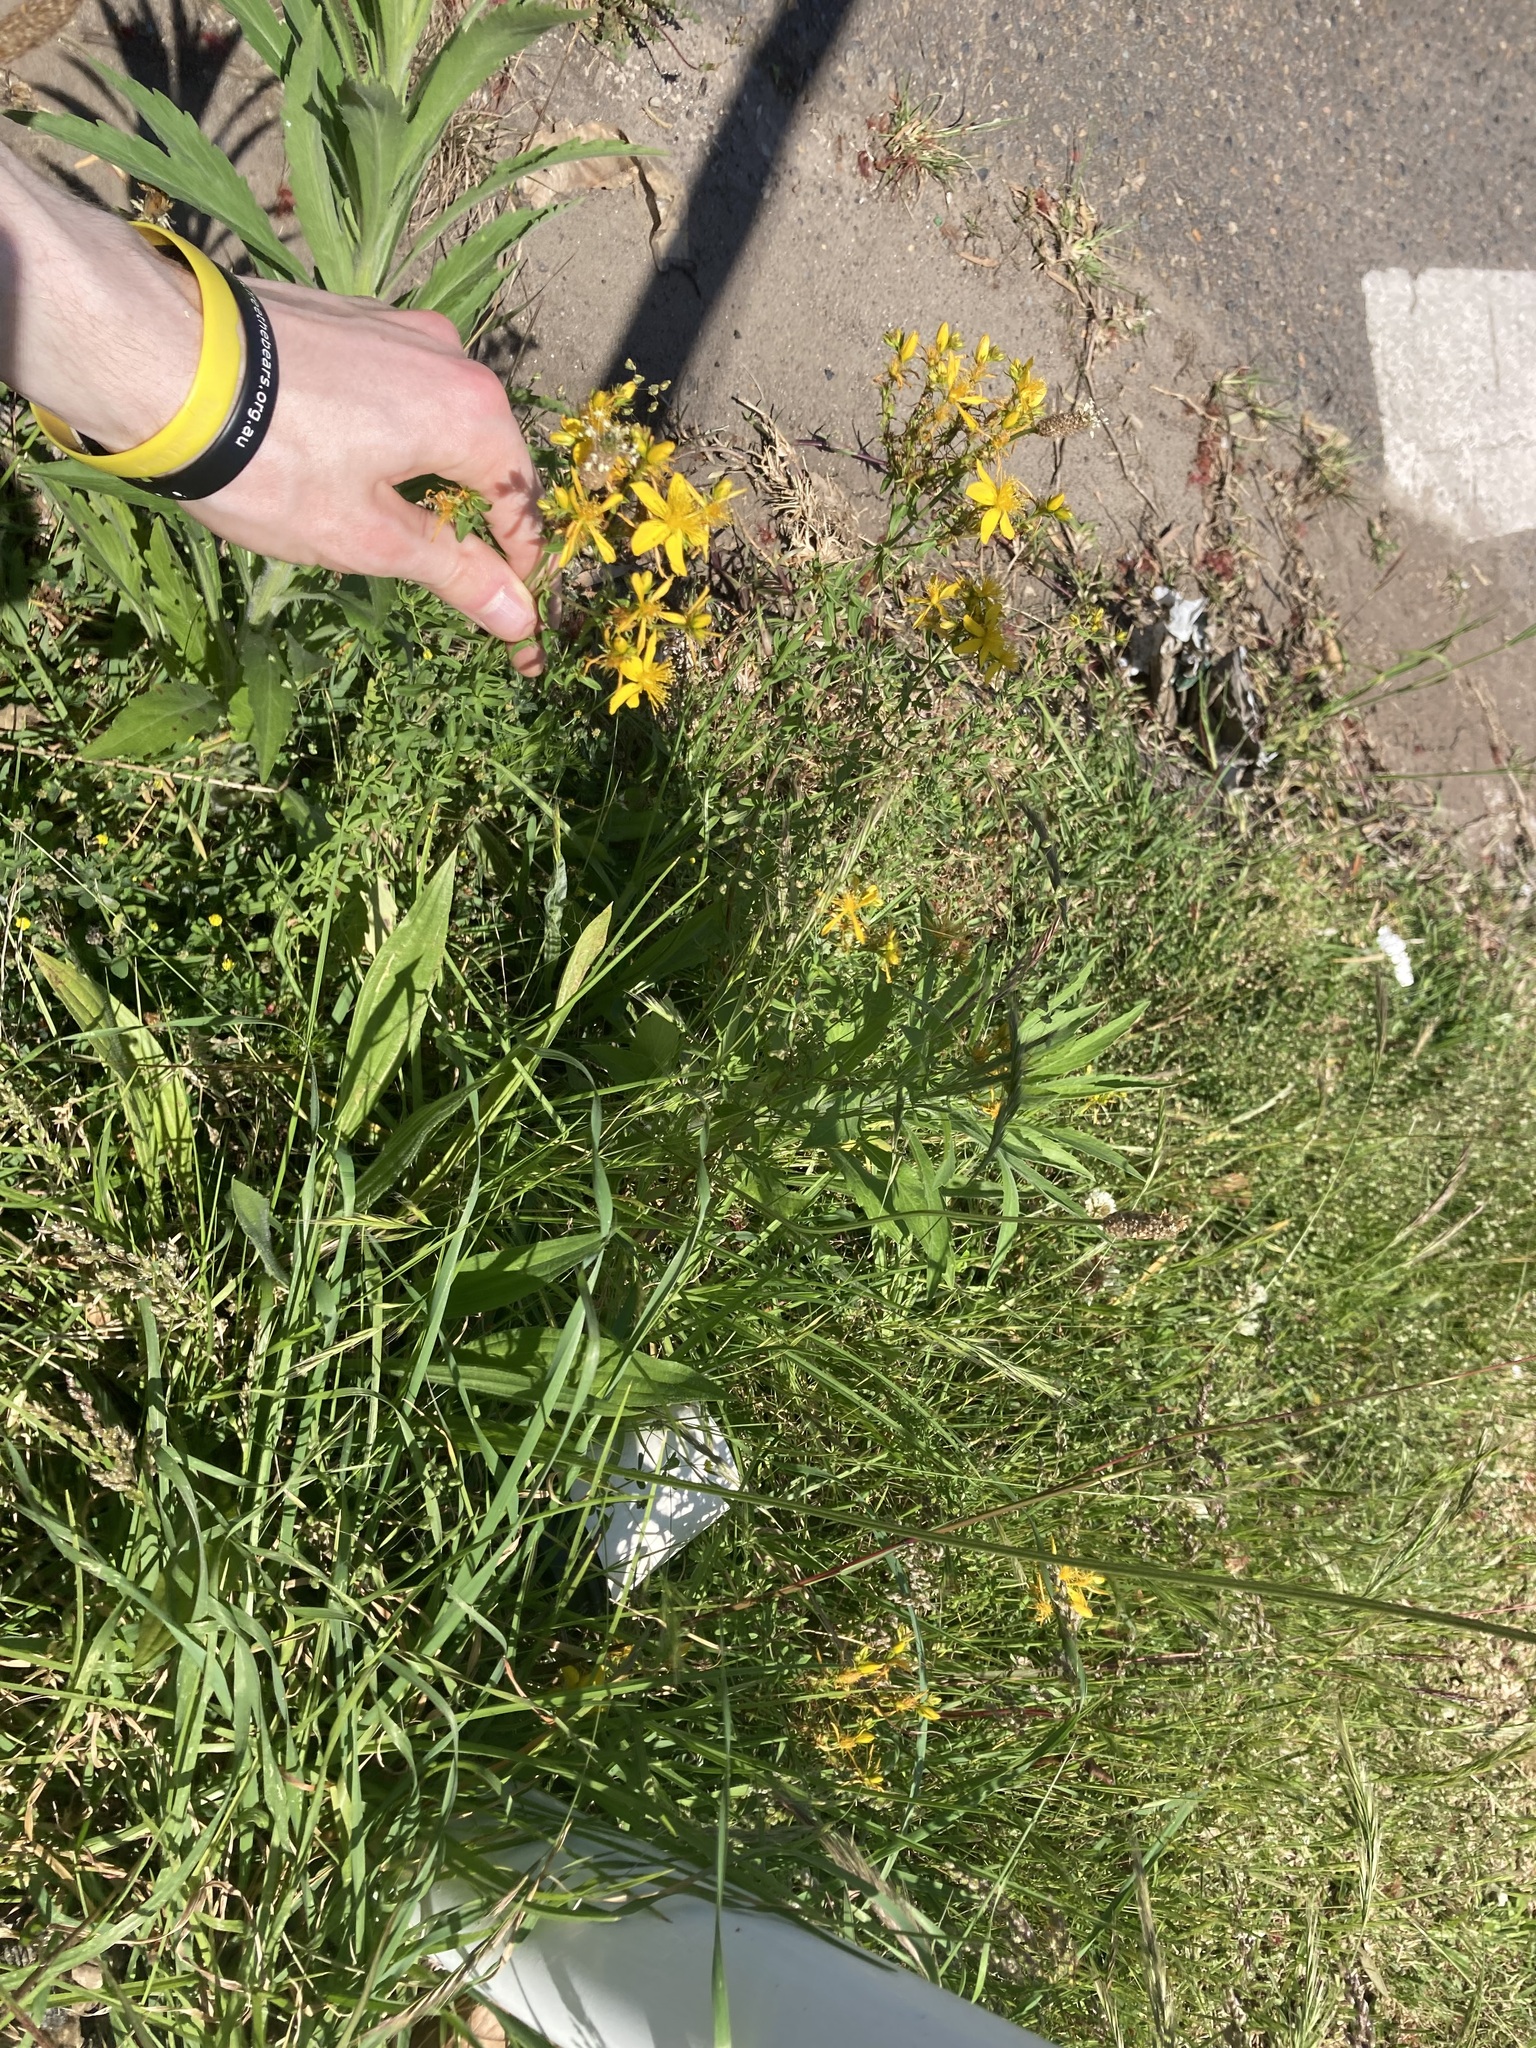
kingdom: Plantae
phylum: Tracheophyta
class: Magnoliopsida
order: Malpighiales
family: Hypericaceae
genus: Hypericum
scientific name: Hypericum perforatum
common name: Common st. johnswort
